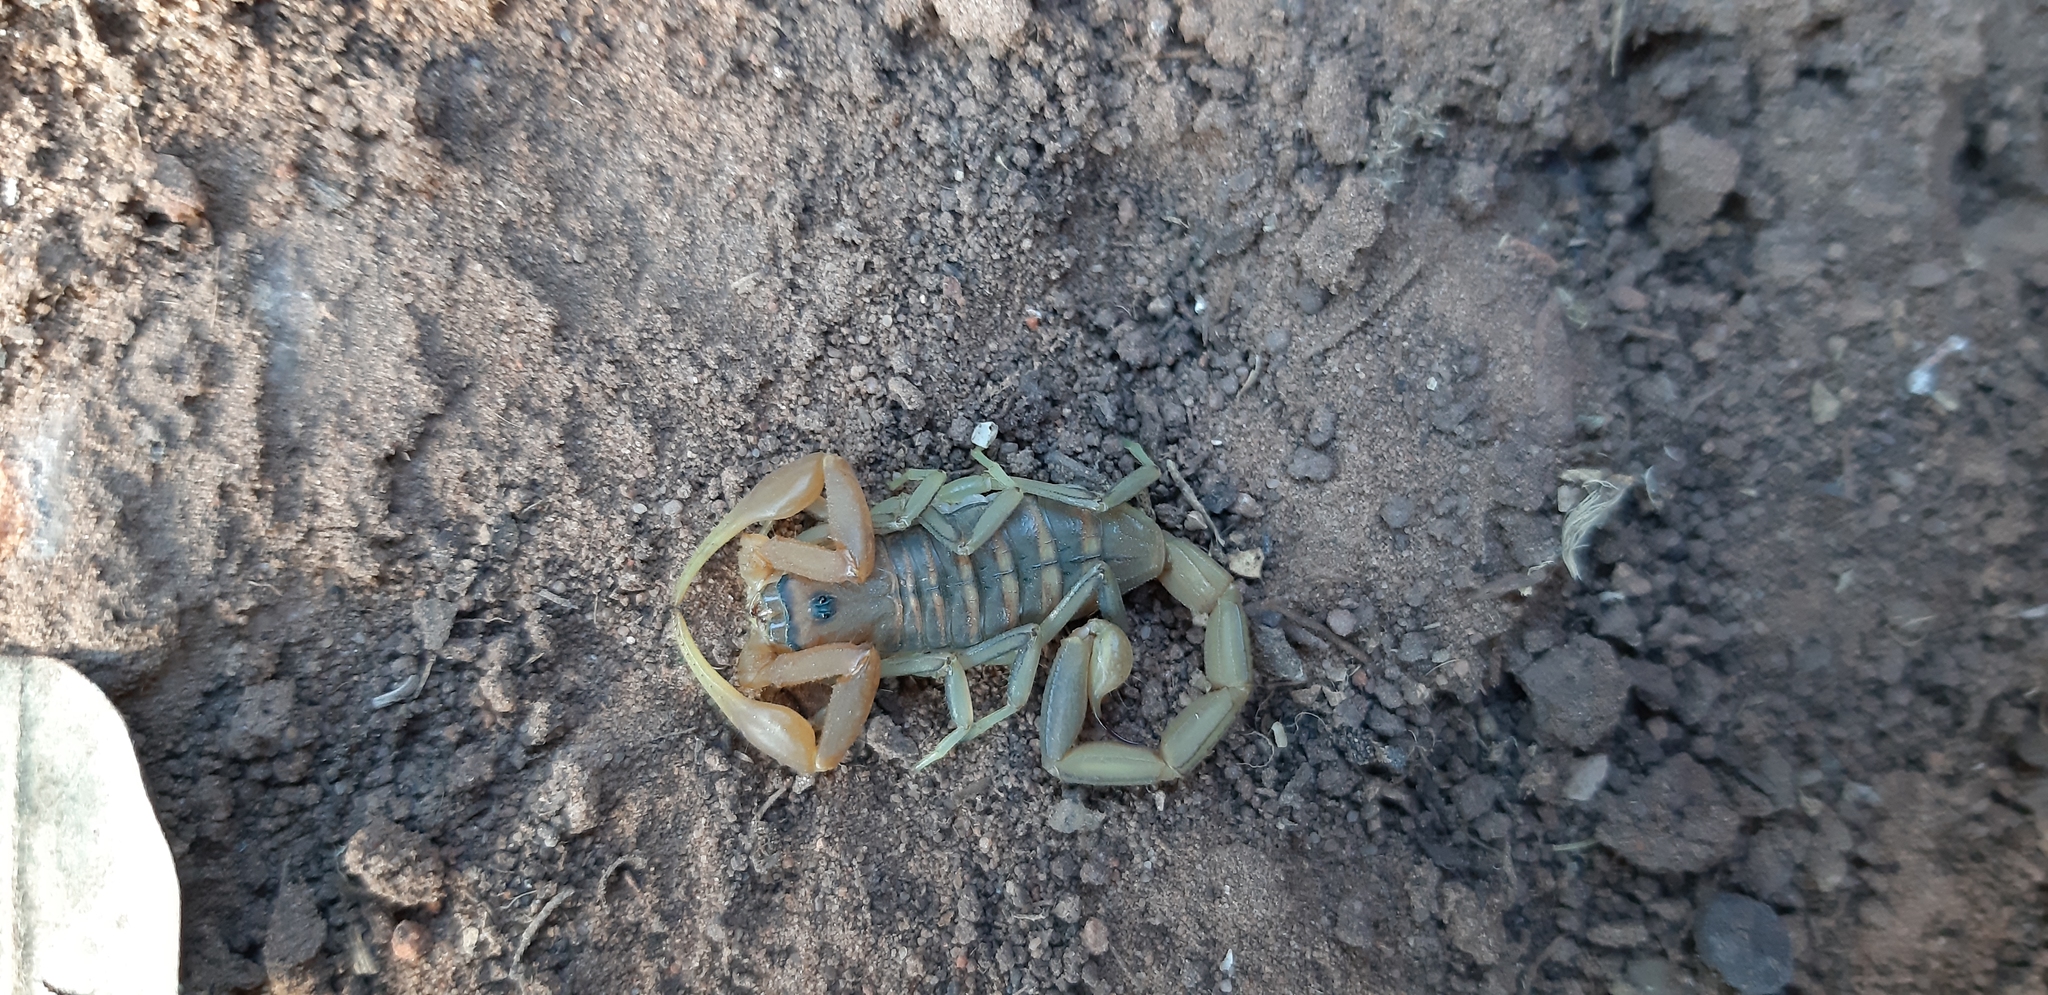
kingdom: Animalia
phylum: Arthropoda
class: Arachnida
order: Scorpiones
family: Buthidae
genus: Uroplectes
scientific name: Uroplectes planimanus
